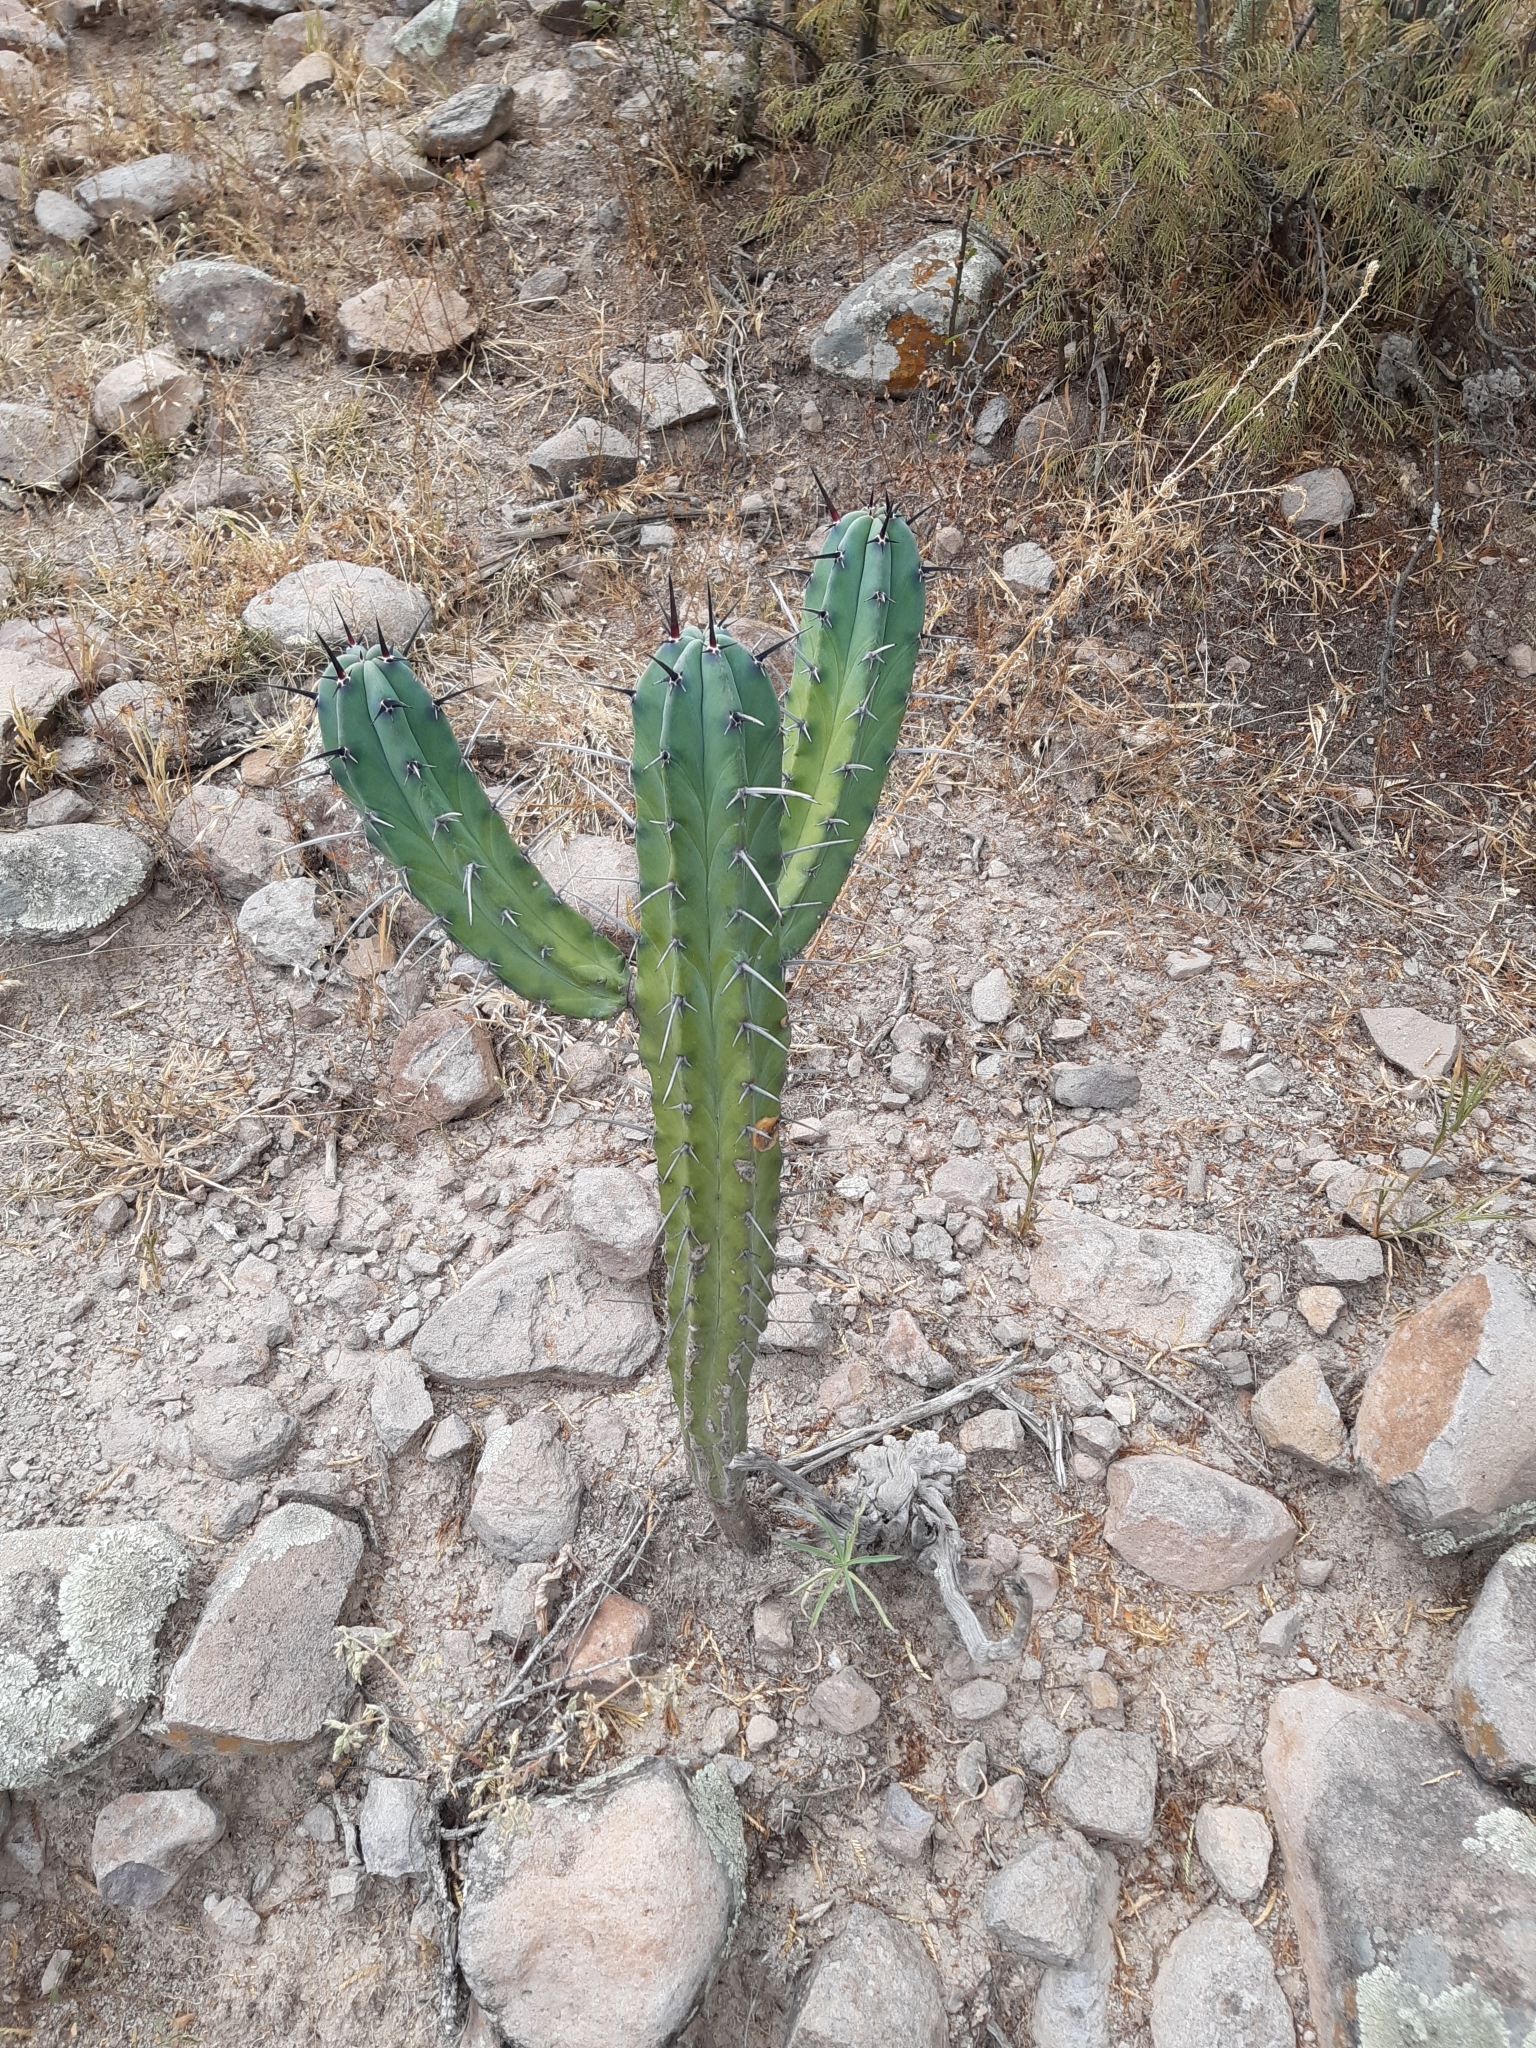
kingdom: Plantae
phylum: Tracheophyta
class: Magnoliopsida
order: Caryophyllales
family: Cactaceae
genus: Myrtillocactus
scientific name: Myrtillocactus geometrizans
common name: Bilberry cactus
